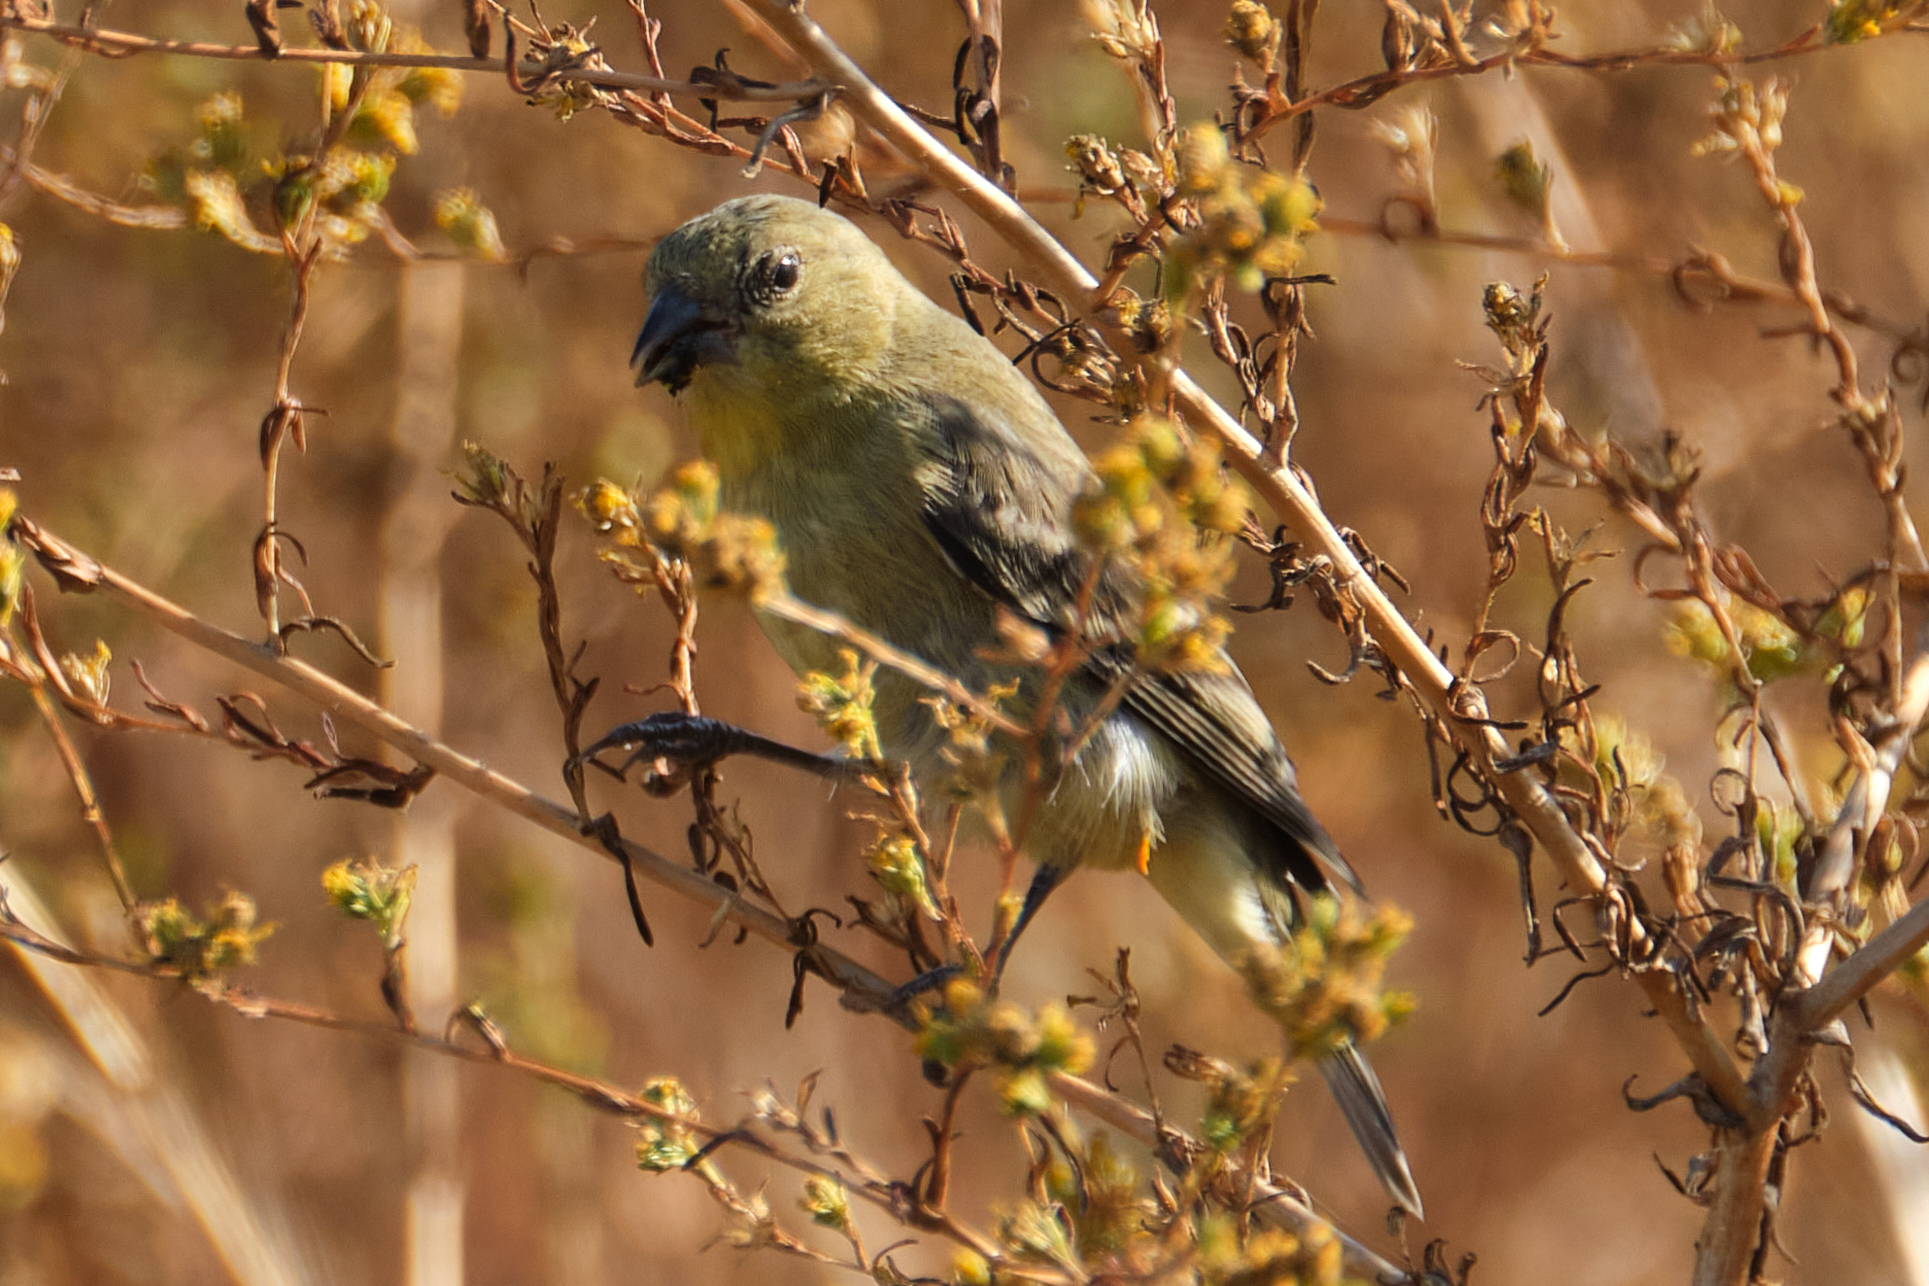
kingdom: Animalia
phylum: Chordata
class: Aves
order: Passeriformes
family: Fringillidae
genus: Spinus
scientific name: Spinus psaltria
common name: Lesser goldfinch
